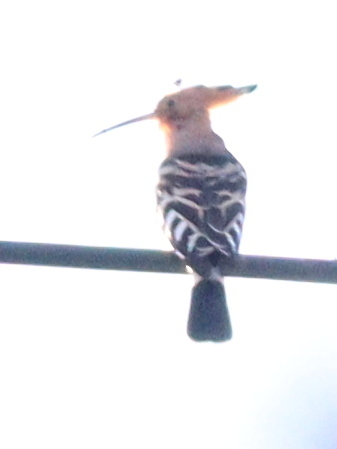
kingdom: Animalia
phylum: Chordata
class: Aves
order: Bucerotiformes
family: Upupidae
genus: Upupa
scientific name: Upupa epops
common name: Eurasian hoopoe
